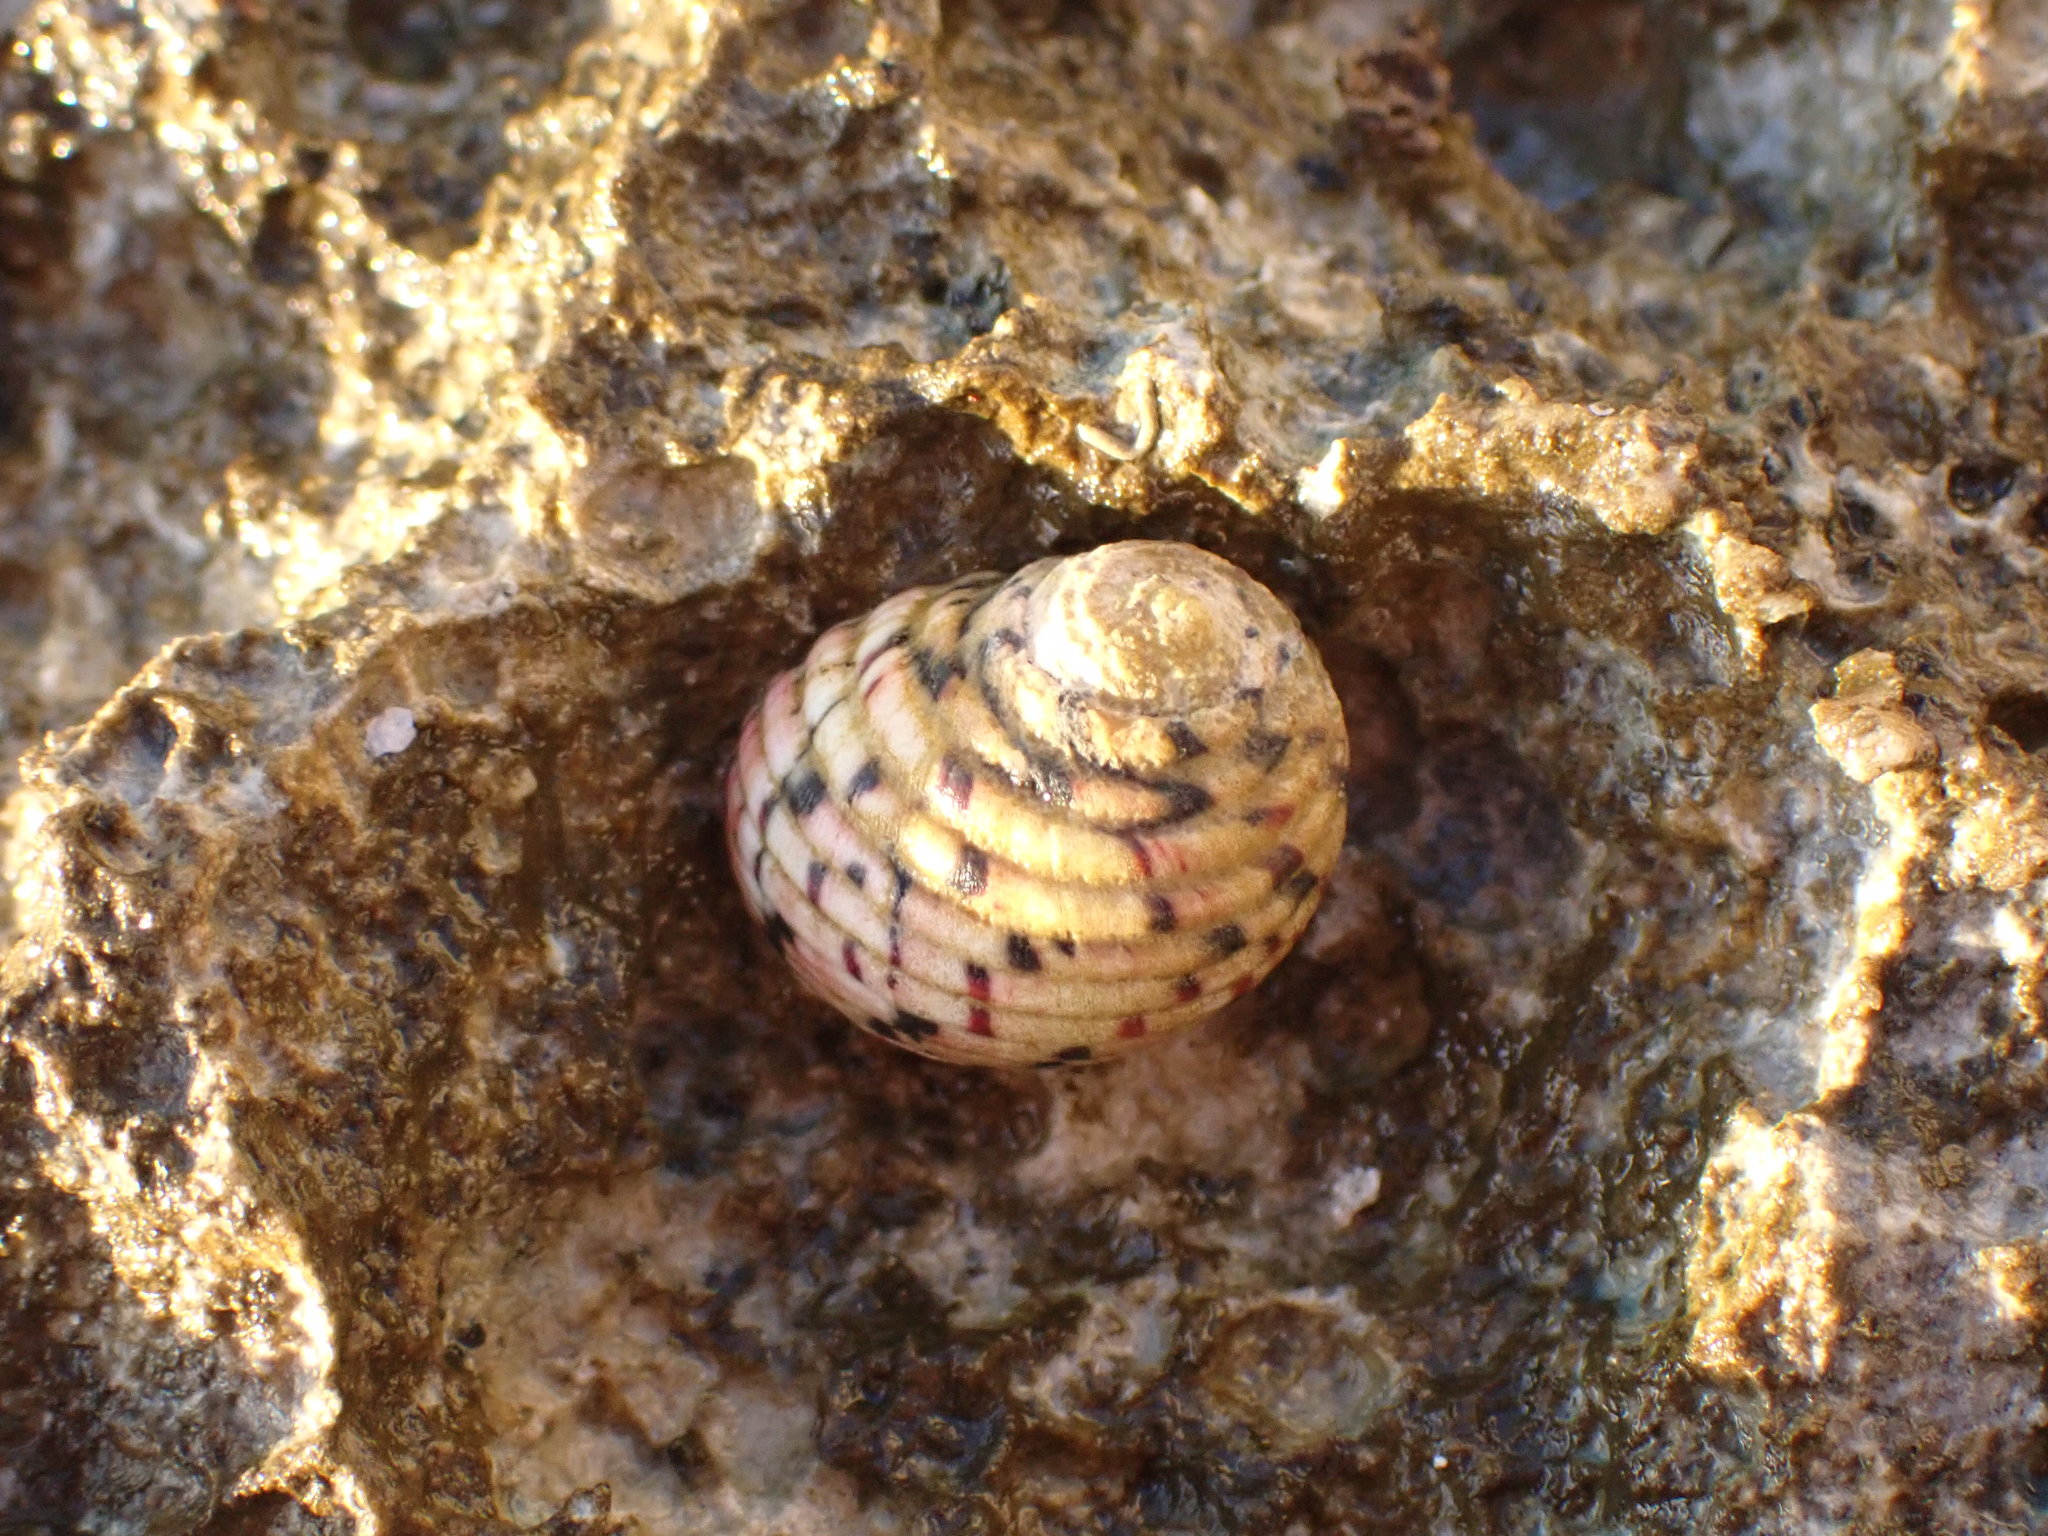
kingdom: Animalia
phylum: Mollusca
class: Gastropoda
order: Cycloneritida
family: Neritidae
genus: Nerita
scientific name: Nerita versicolor
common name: Four-tooth nerite
